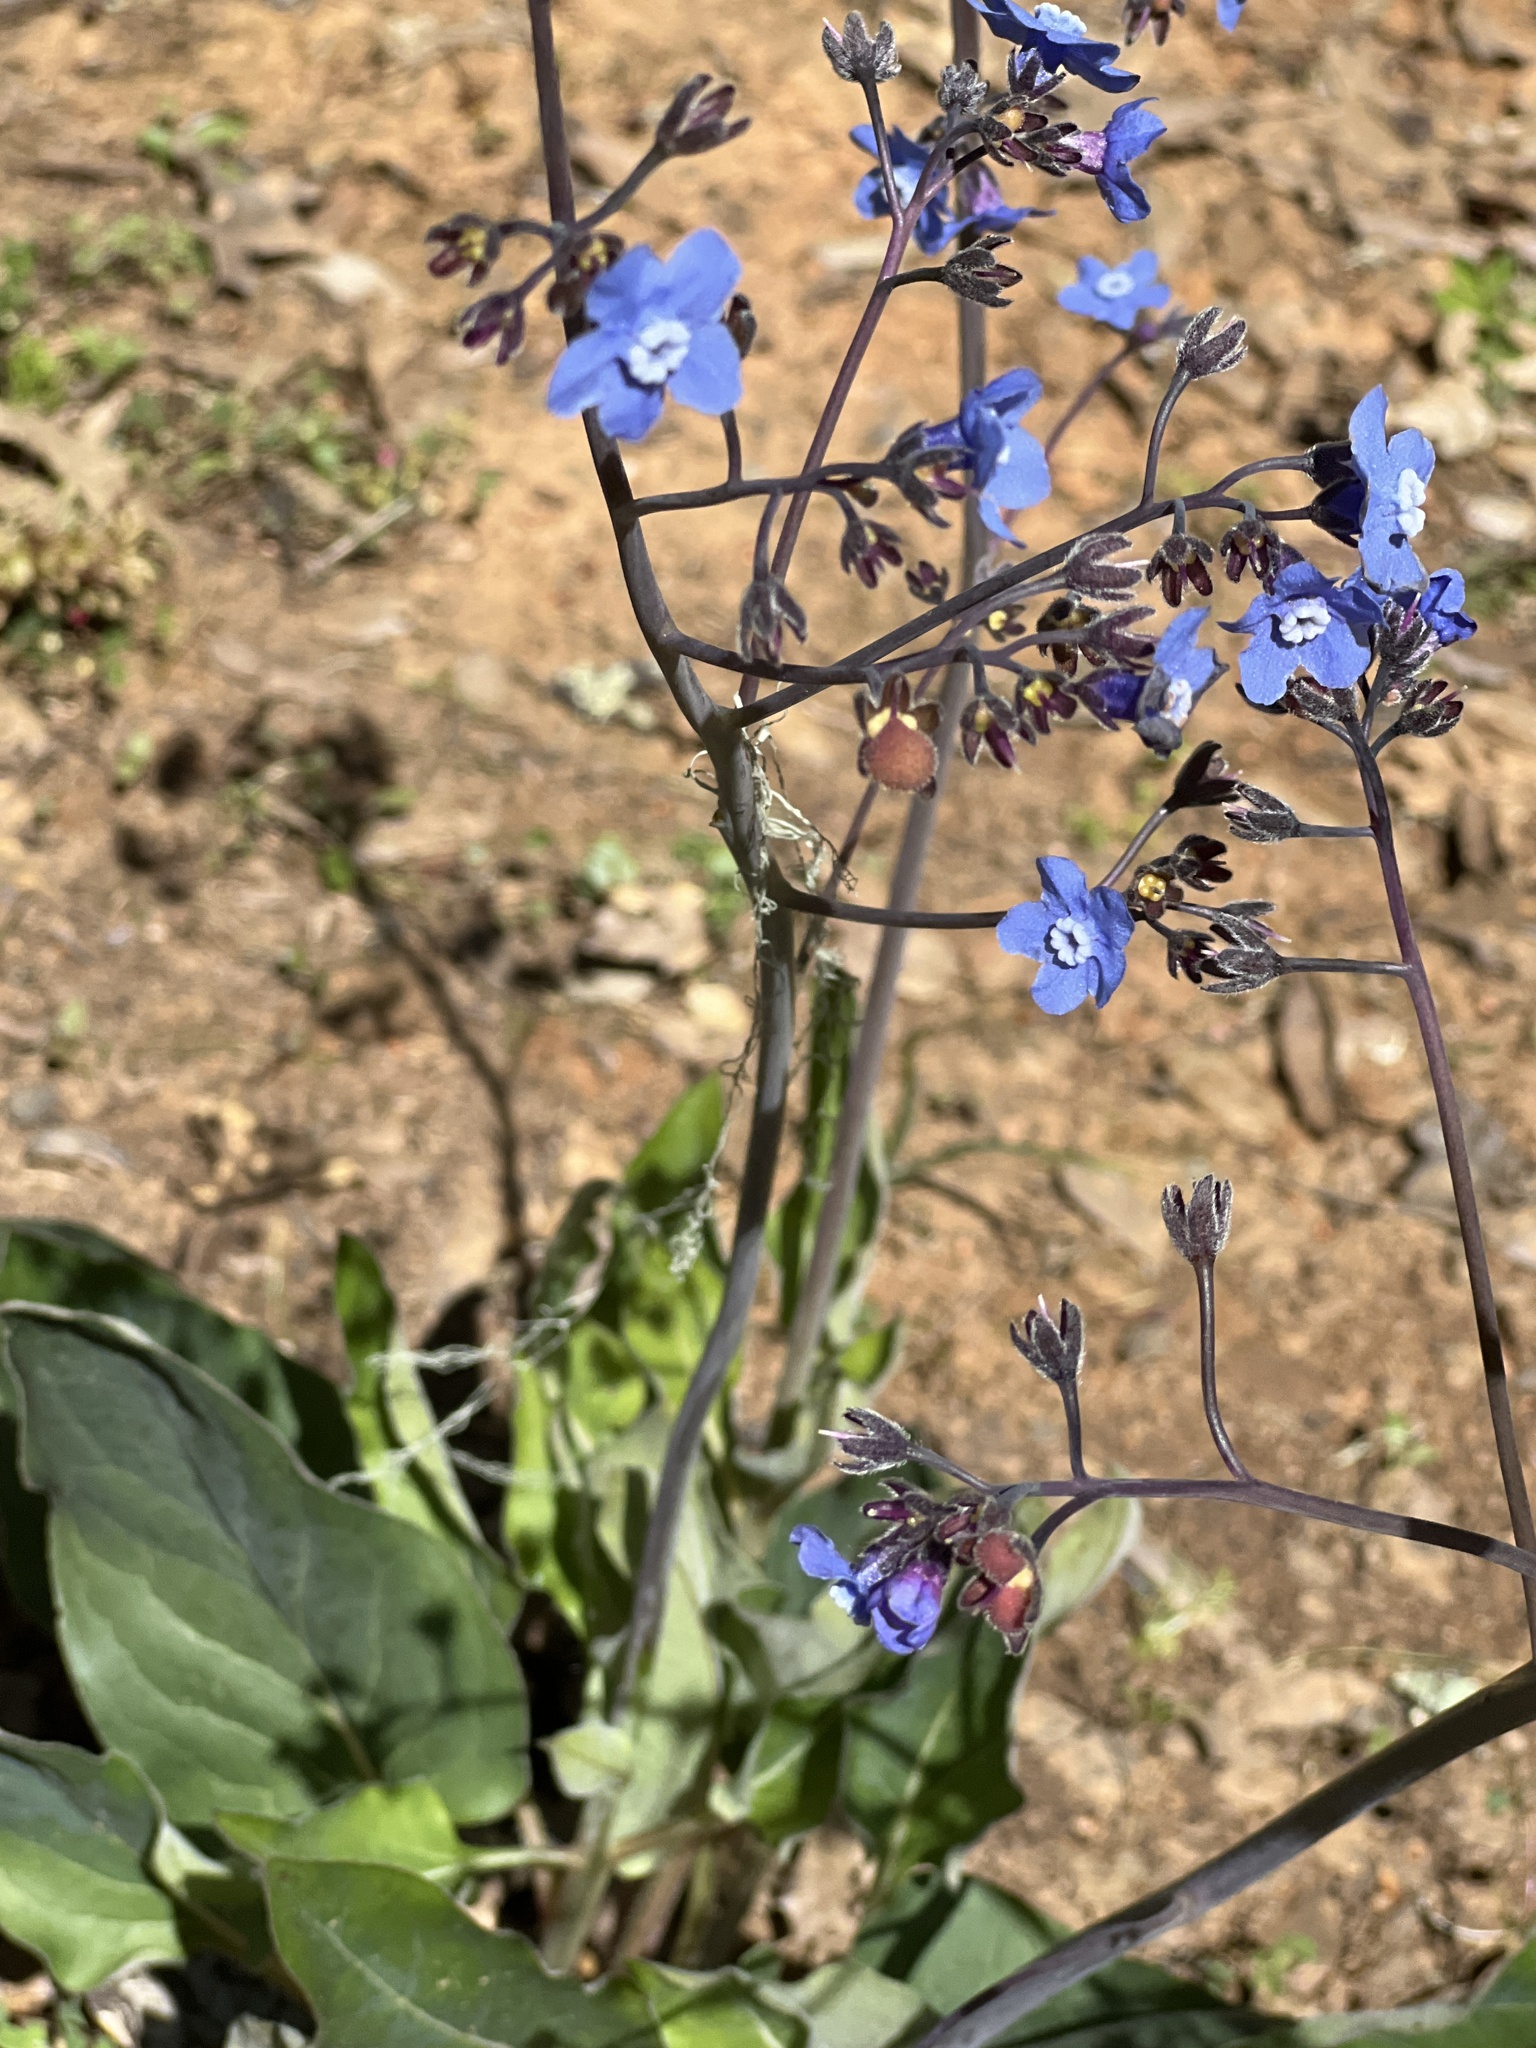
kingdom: Plantae
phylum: Tracheophyta
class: Magnoliopsida
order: Boraginales
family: Boraginaceae
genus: Adelinia
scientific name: Adelinia grande
